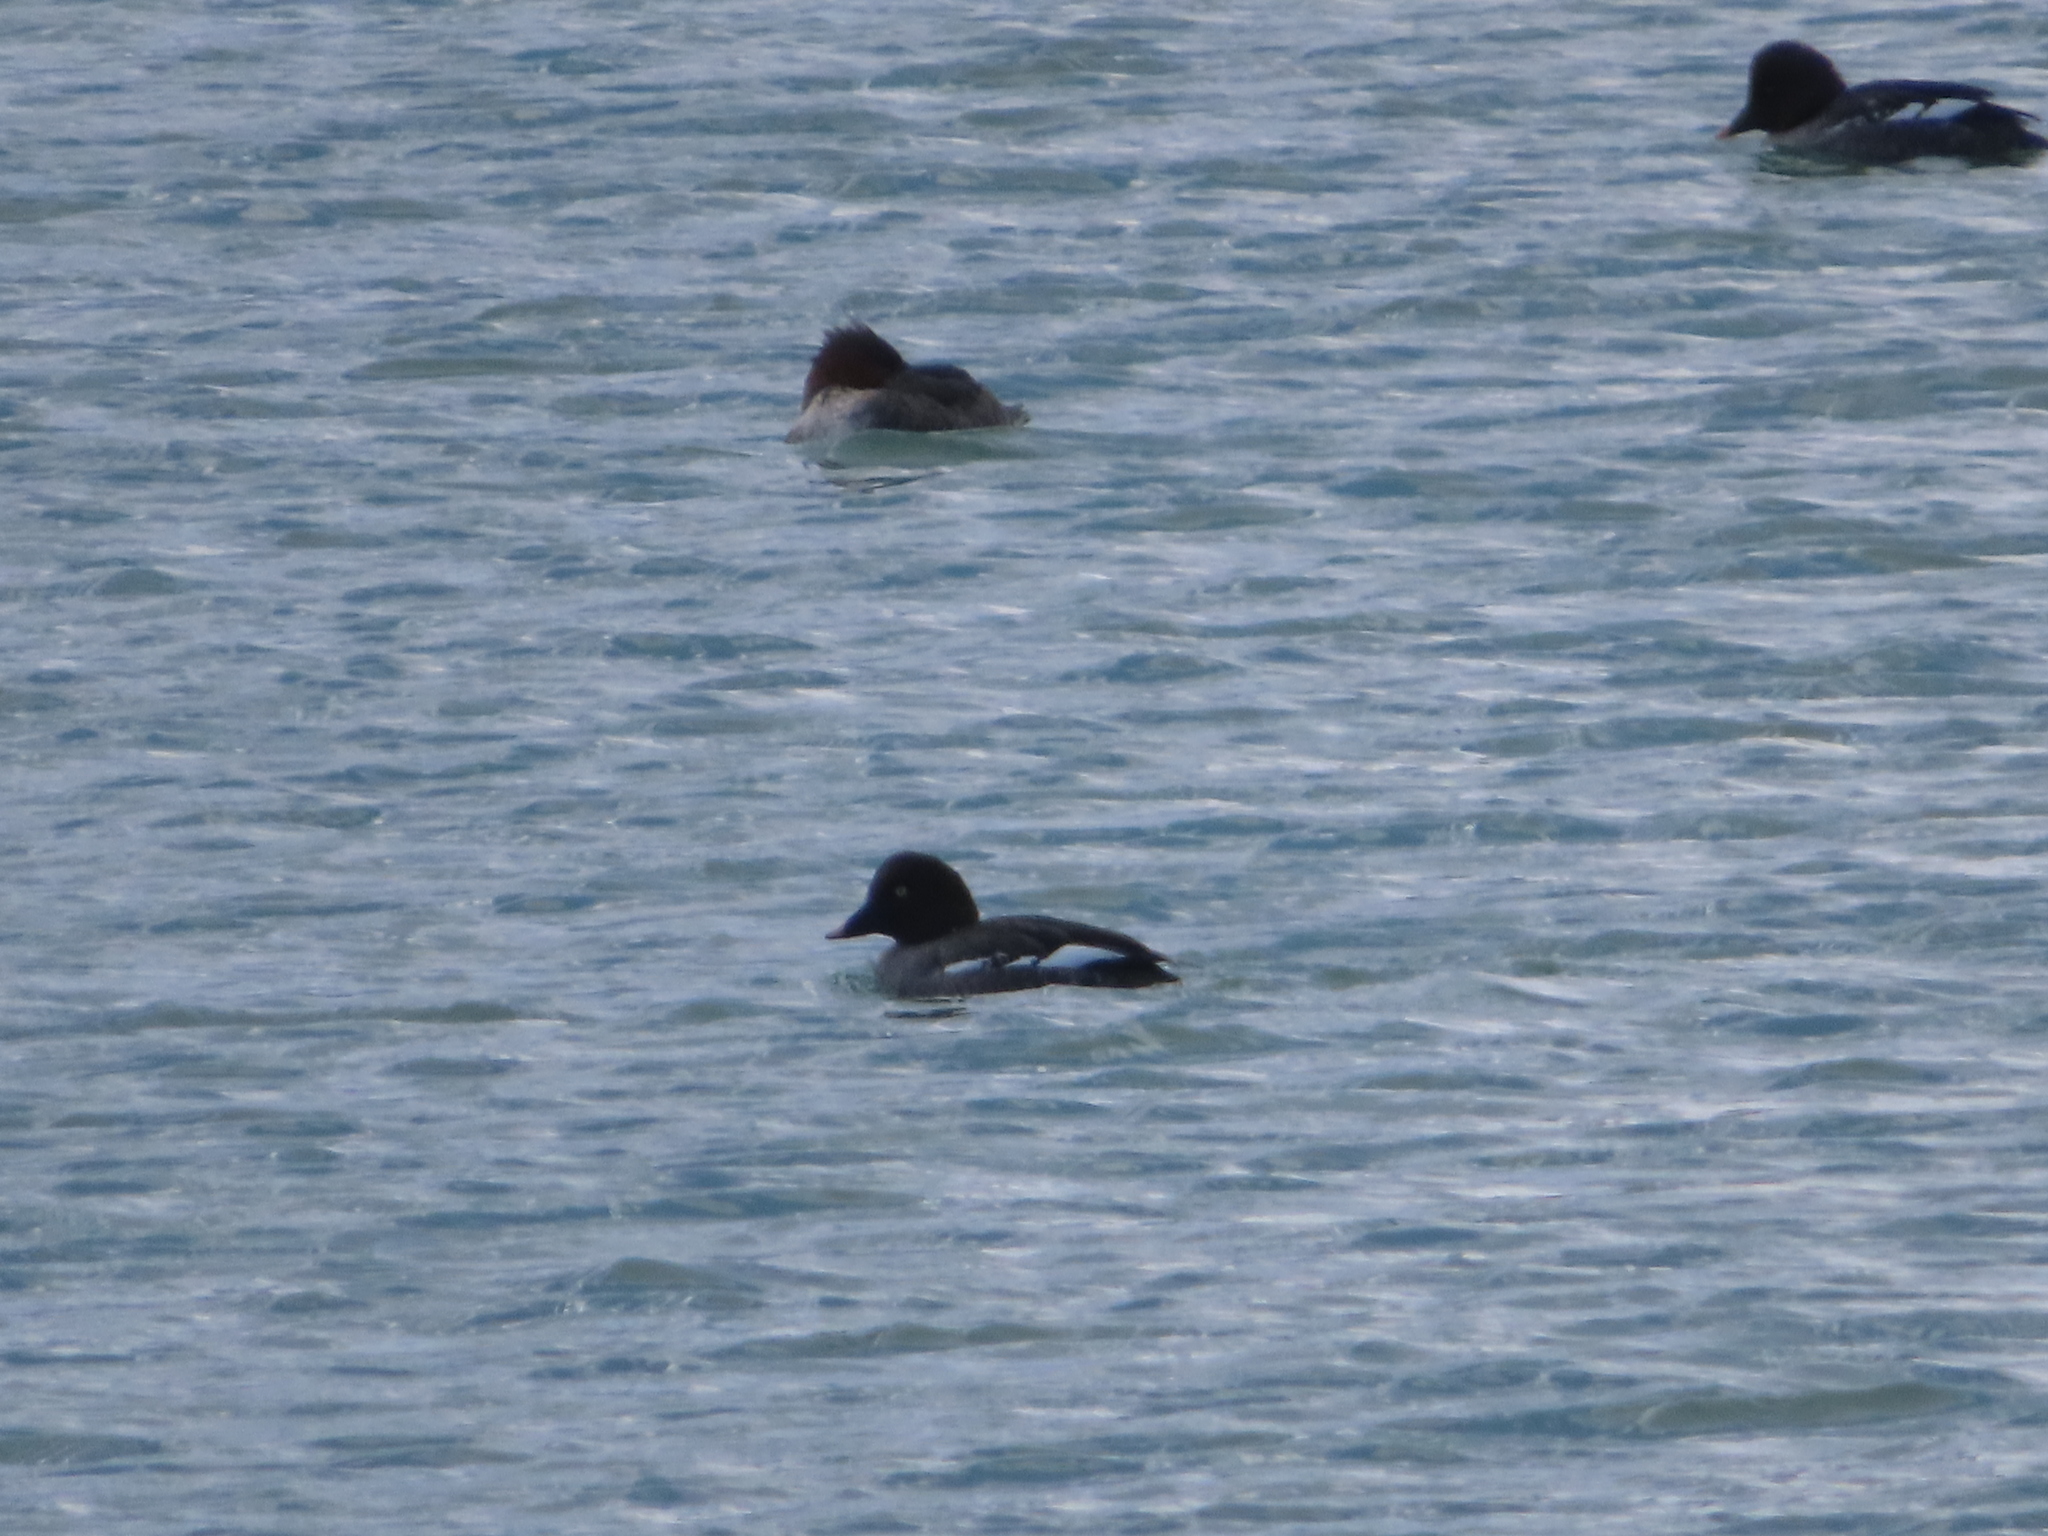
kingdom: Animalia
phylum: Chordata
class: Aves
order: Anseriformes
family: Anatidae
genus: Bucephala
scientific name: Bucephala clangula
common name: Common goldeneye
